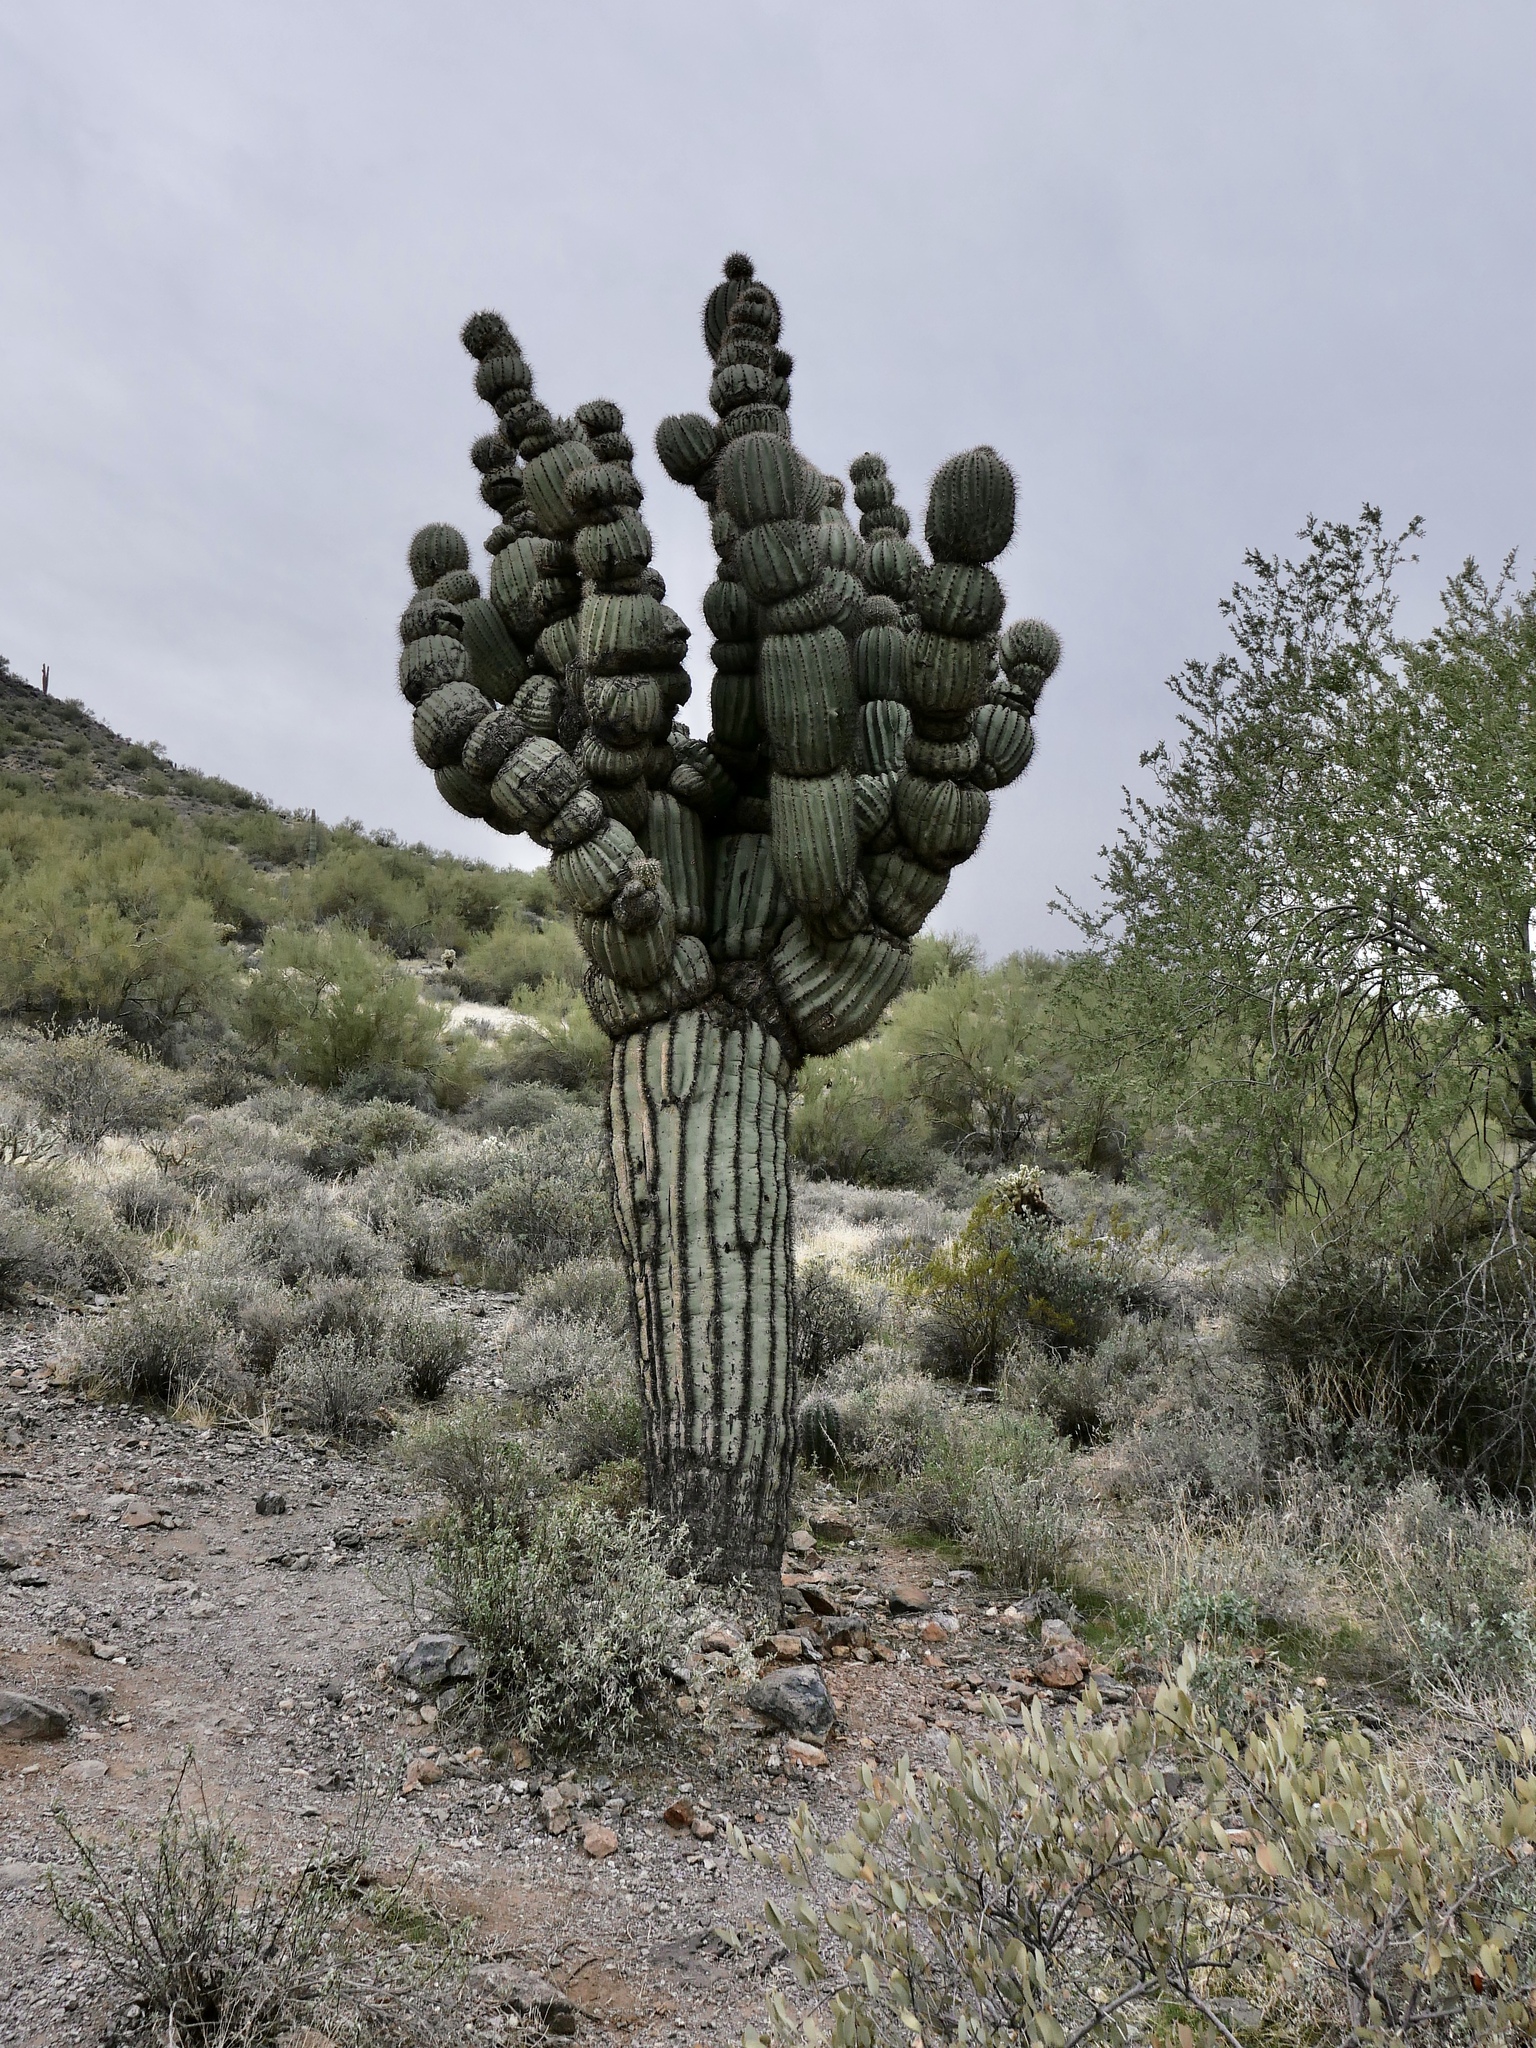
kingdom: Plantae
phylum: Tracheophyta
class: Magnoliopsida
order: Caryophyllales
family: Cactaceae
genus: Carnegiea
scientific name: Carnegiea gigantea
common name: Saguaro
